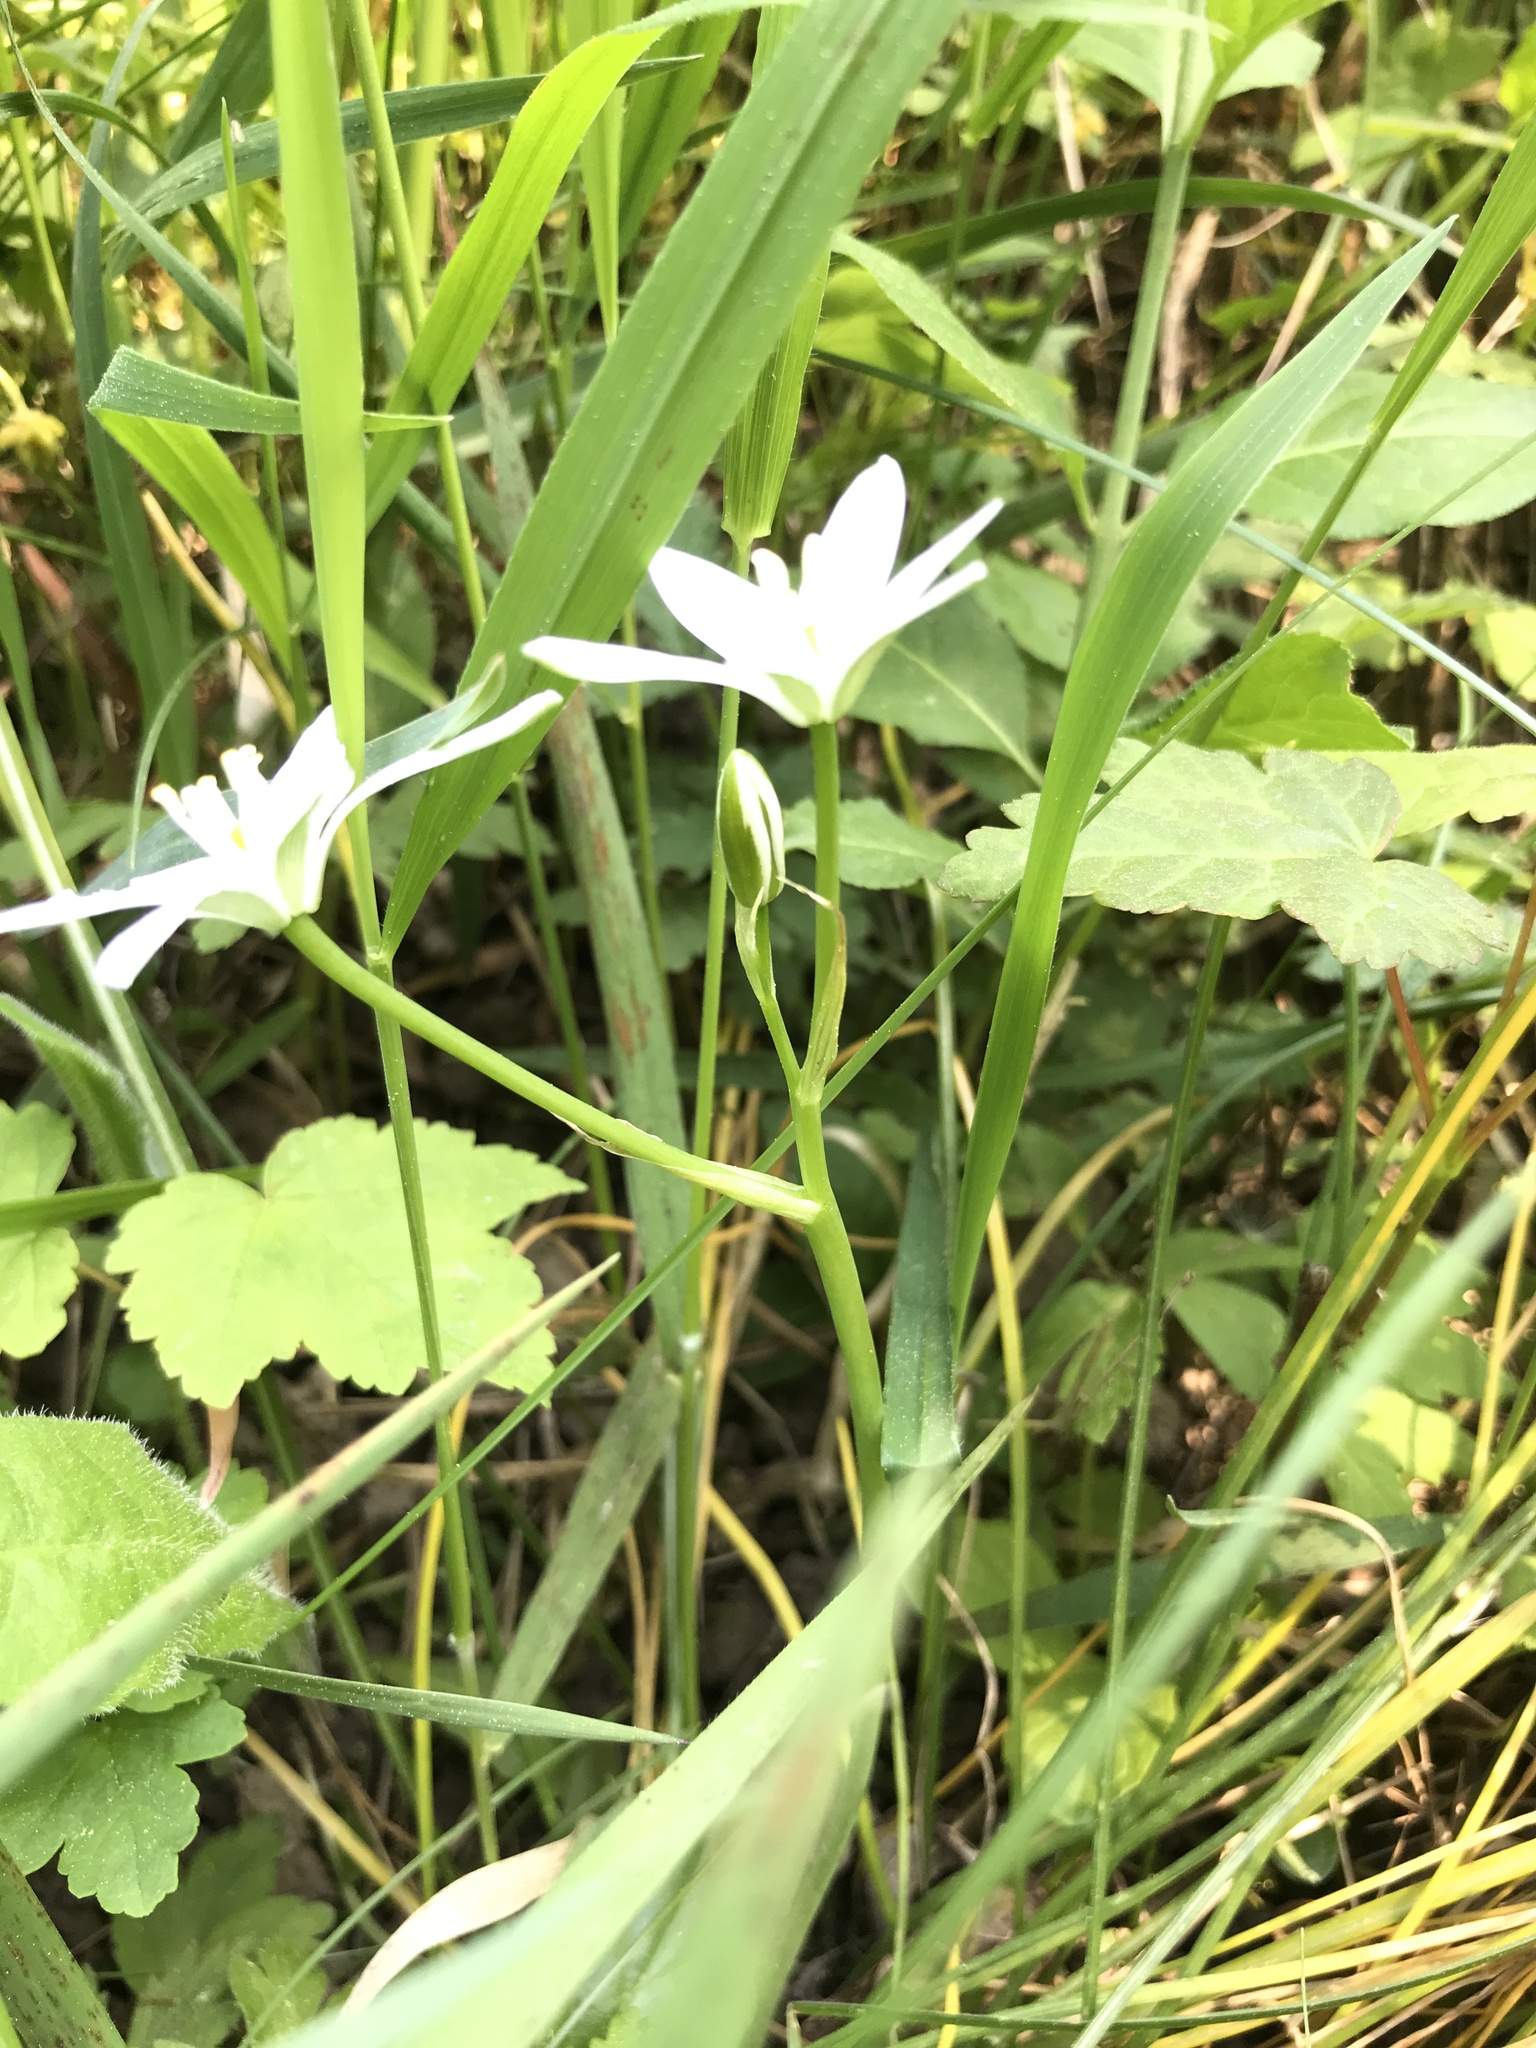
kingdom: Plantae
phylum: Tracheophyta
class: Liliopsida
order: Asparagales
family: Asparagaceae
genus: Ornithogalum
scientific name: Ornithogalum umbellatum
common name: Garden star-of-bethlehem
